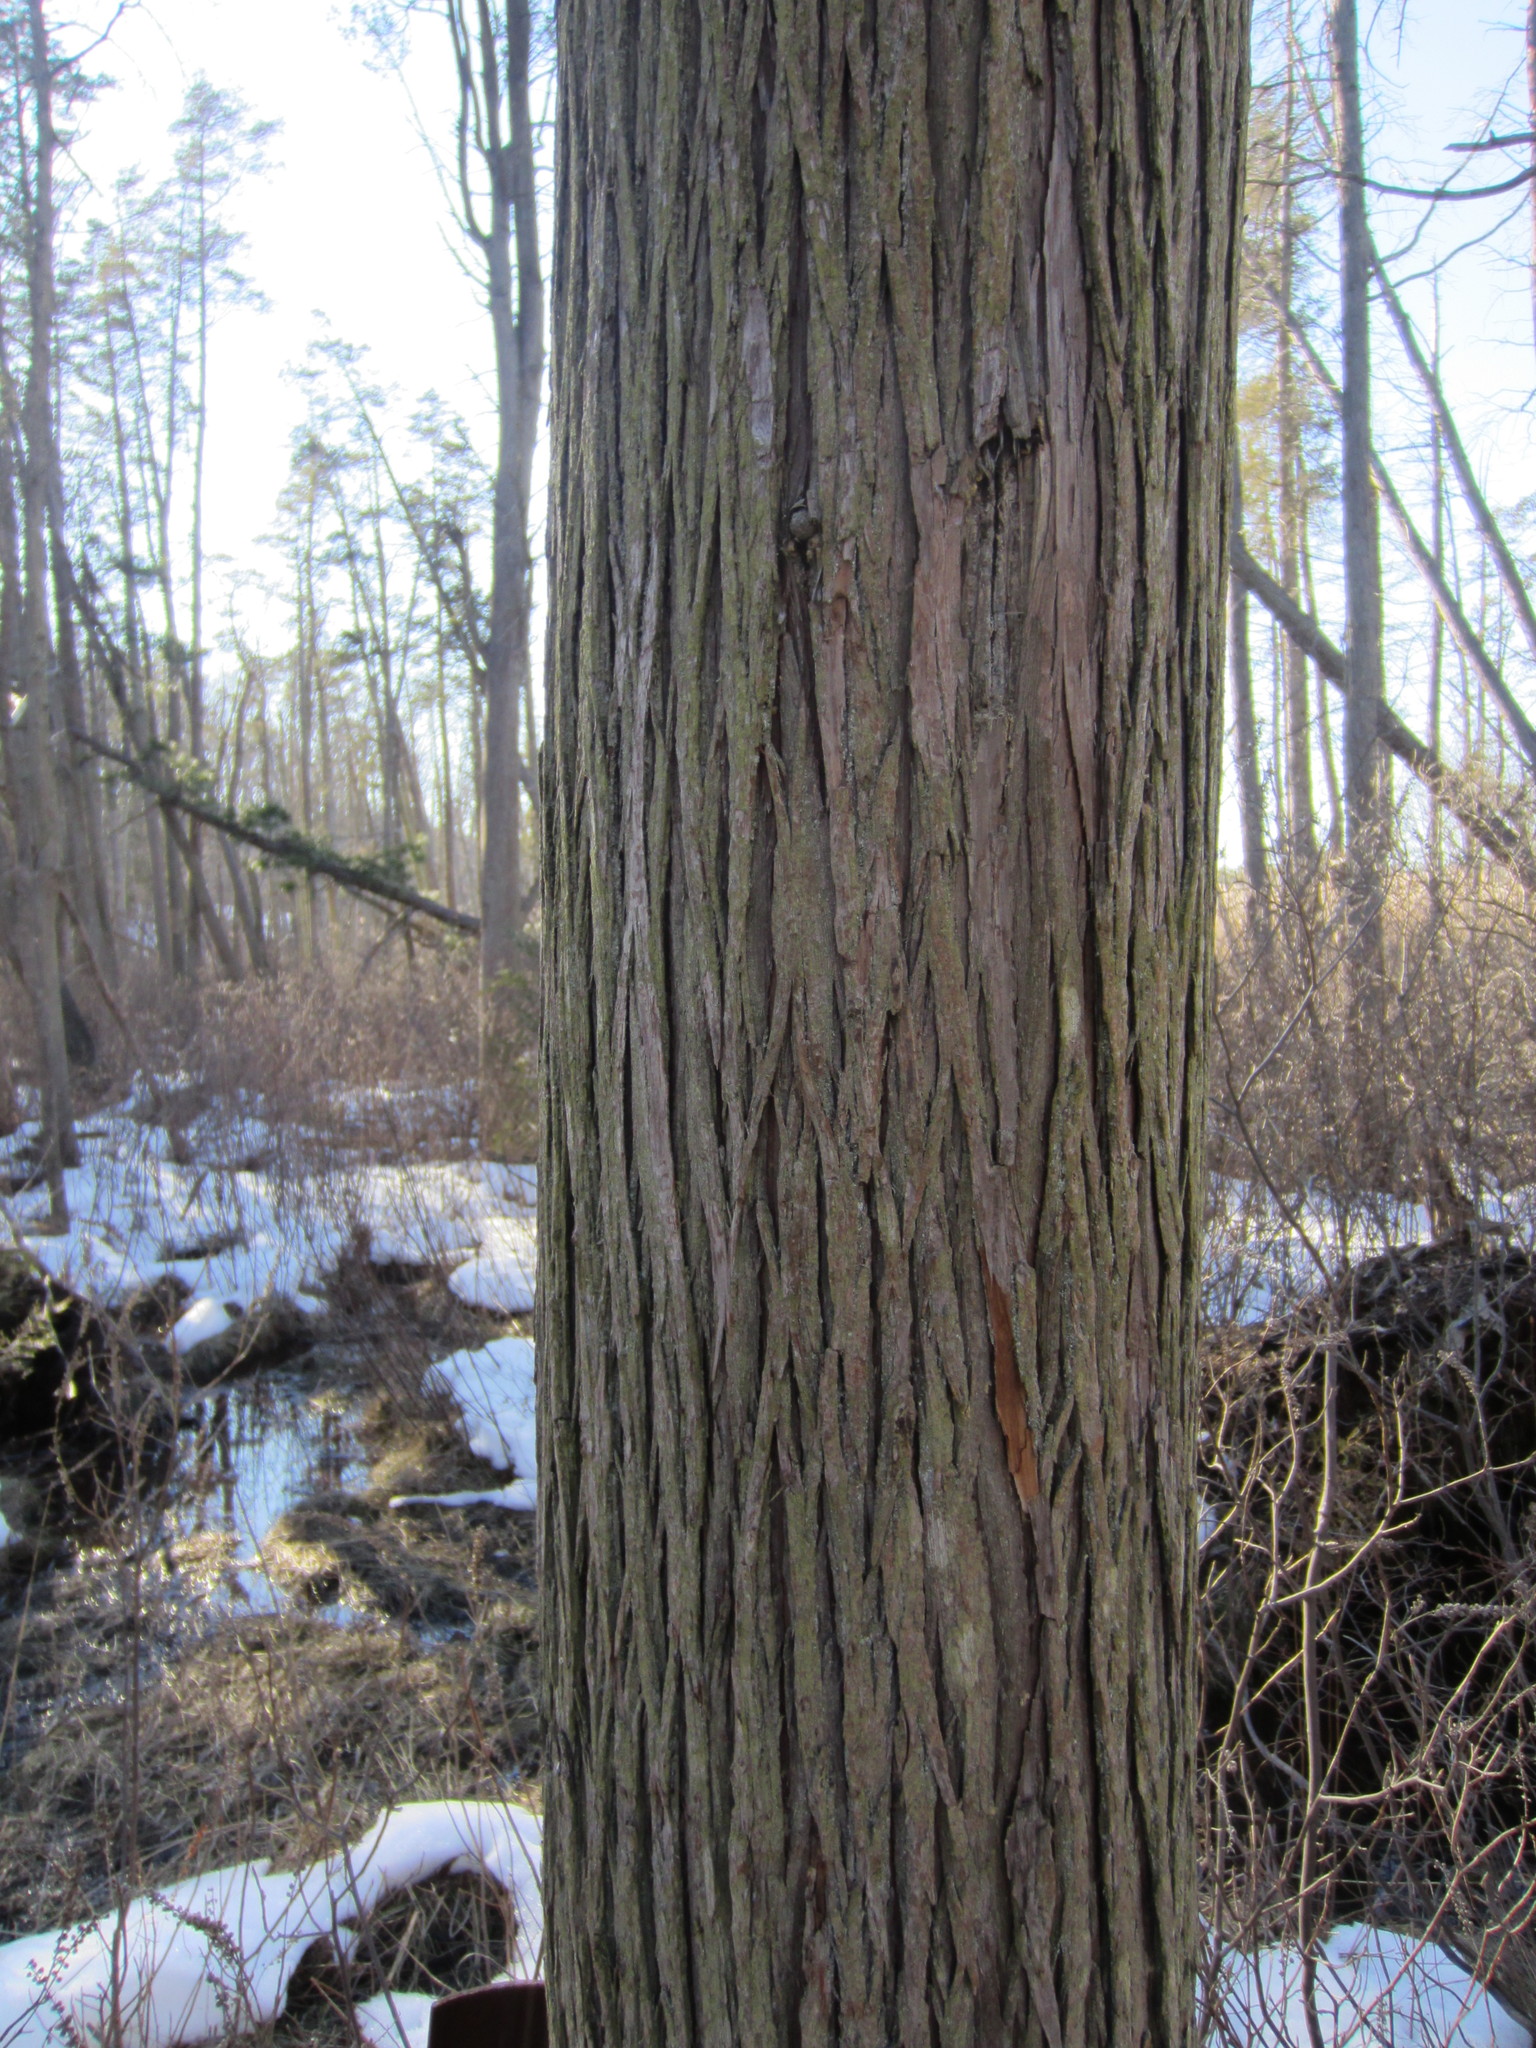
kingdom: Plantae
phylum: Tracheophyta
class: Pinopsida
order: Pinales
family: Cupressaceae
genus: Chamaecyparis
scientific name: Chamaecyparis thyoides
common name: Atlantic white cedar
